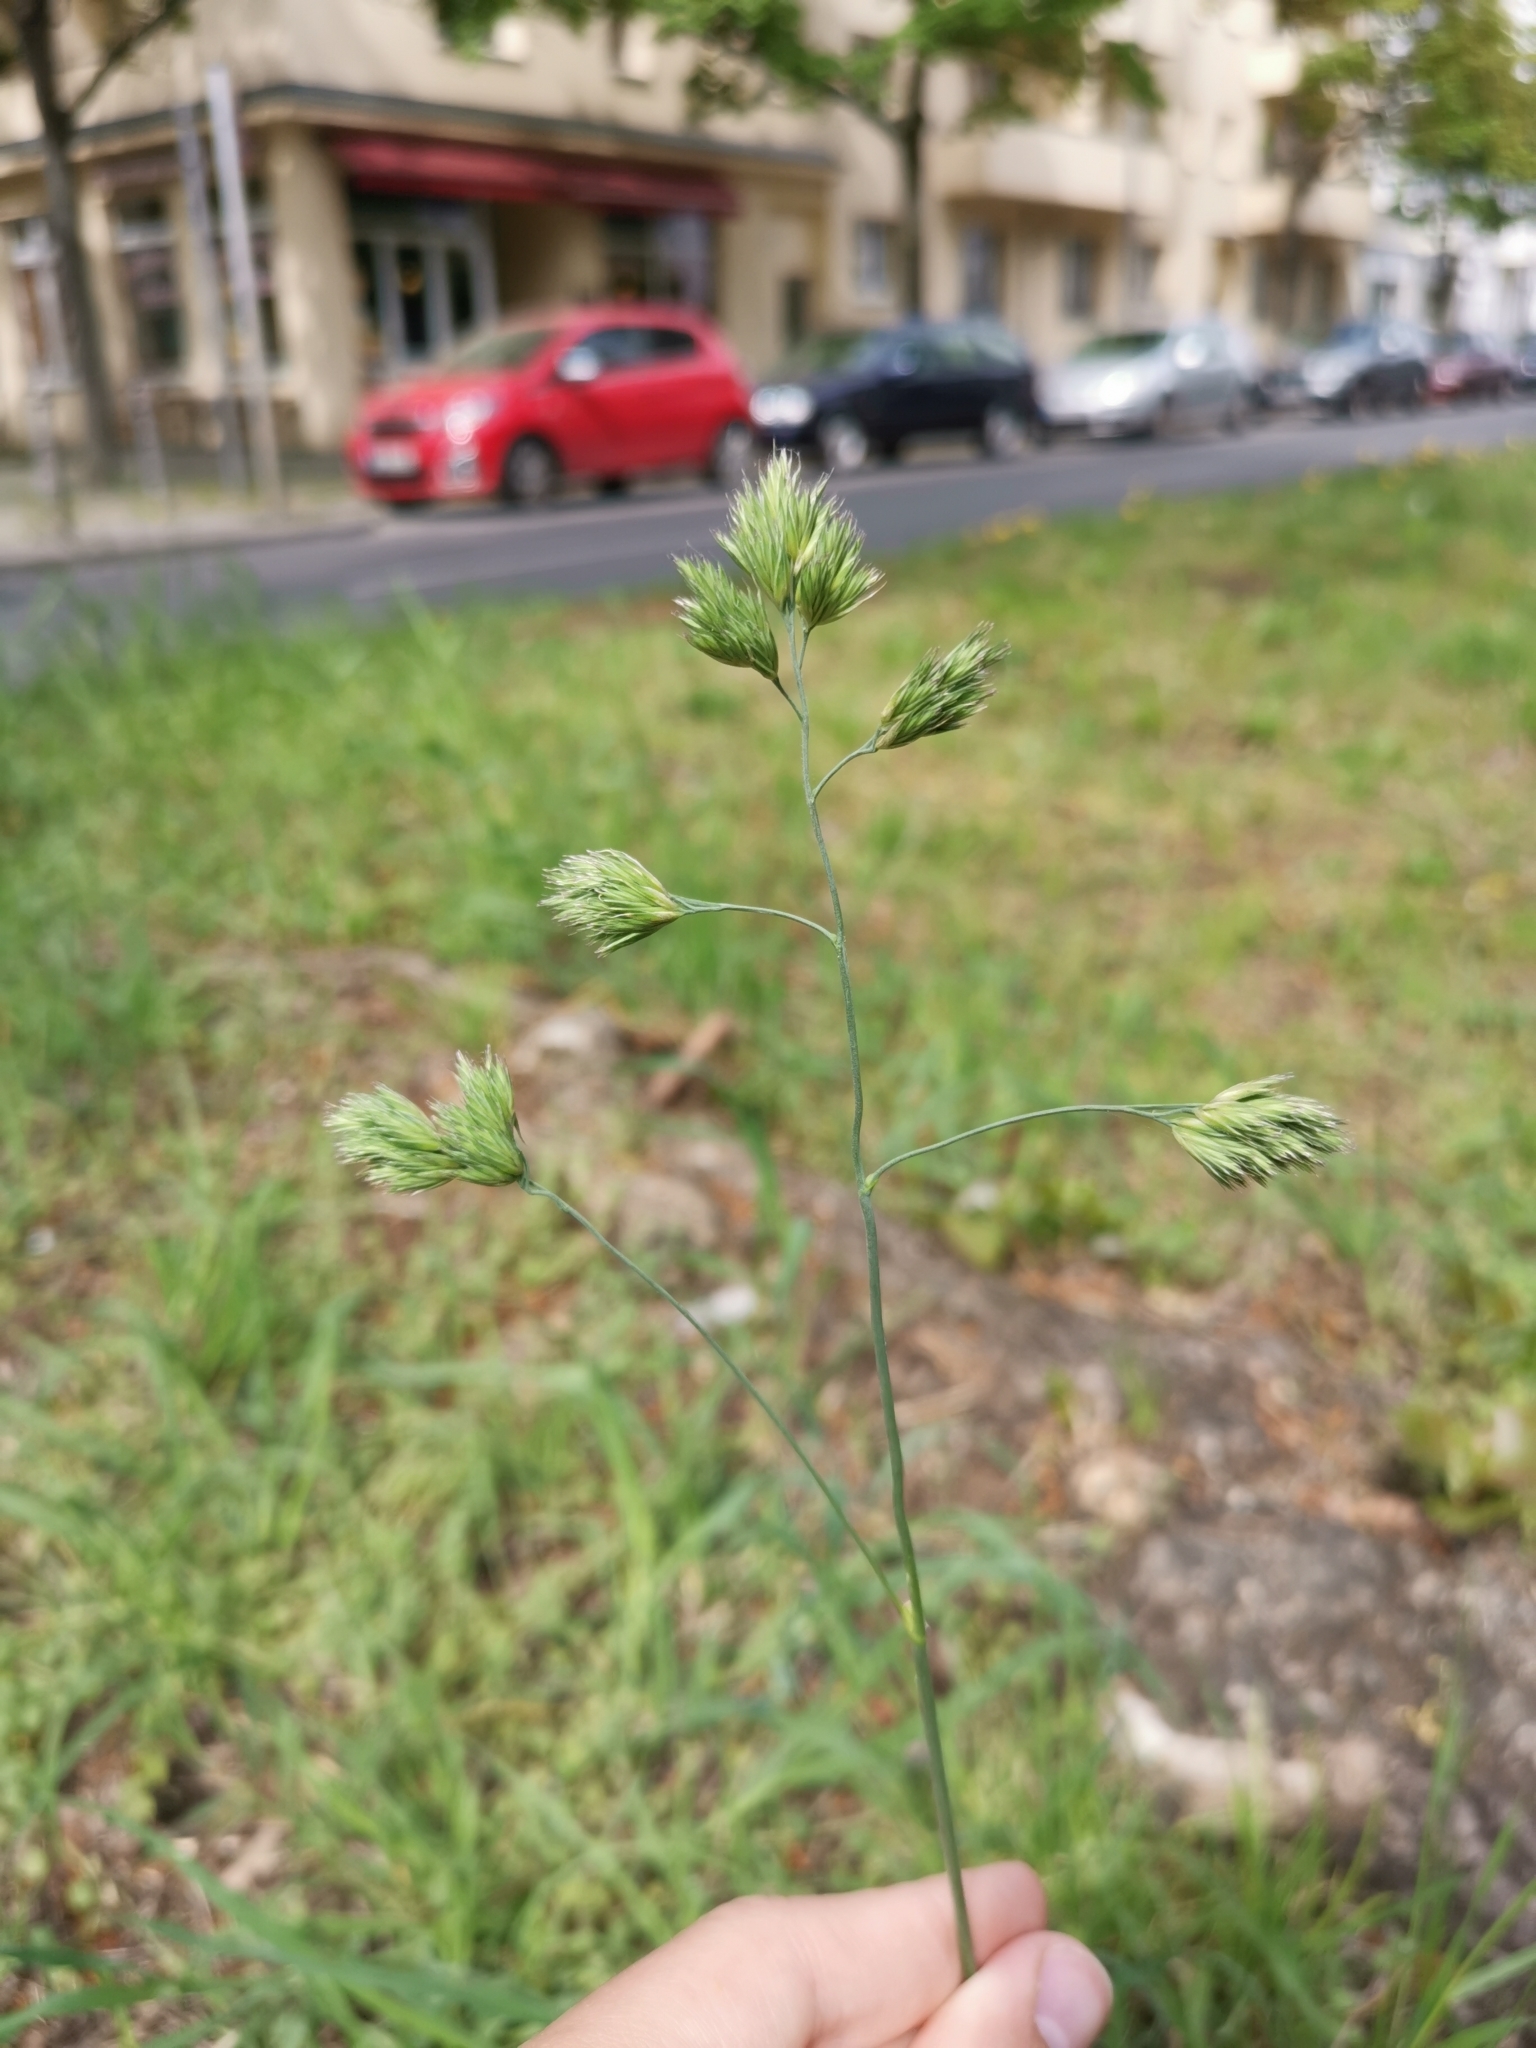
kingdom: Plantae
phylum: Tracheophyta
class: Liliopsida
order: Poales
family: Poaceae
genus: Dactylis
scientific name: Dactylis glomerata
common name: Orchardgrass
